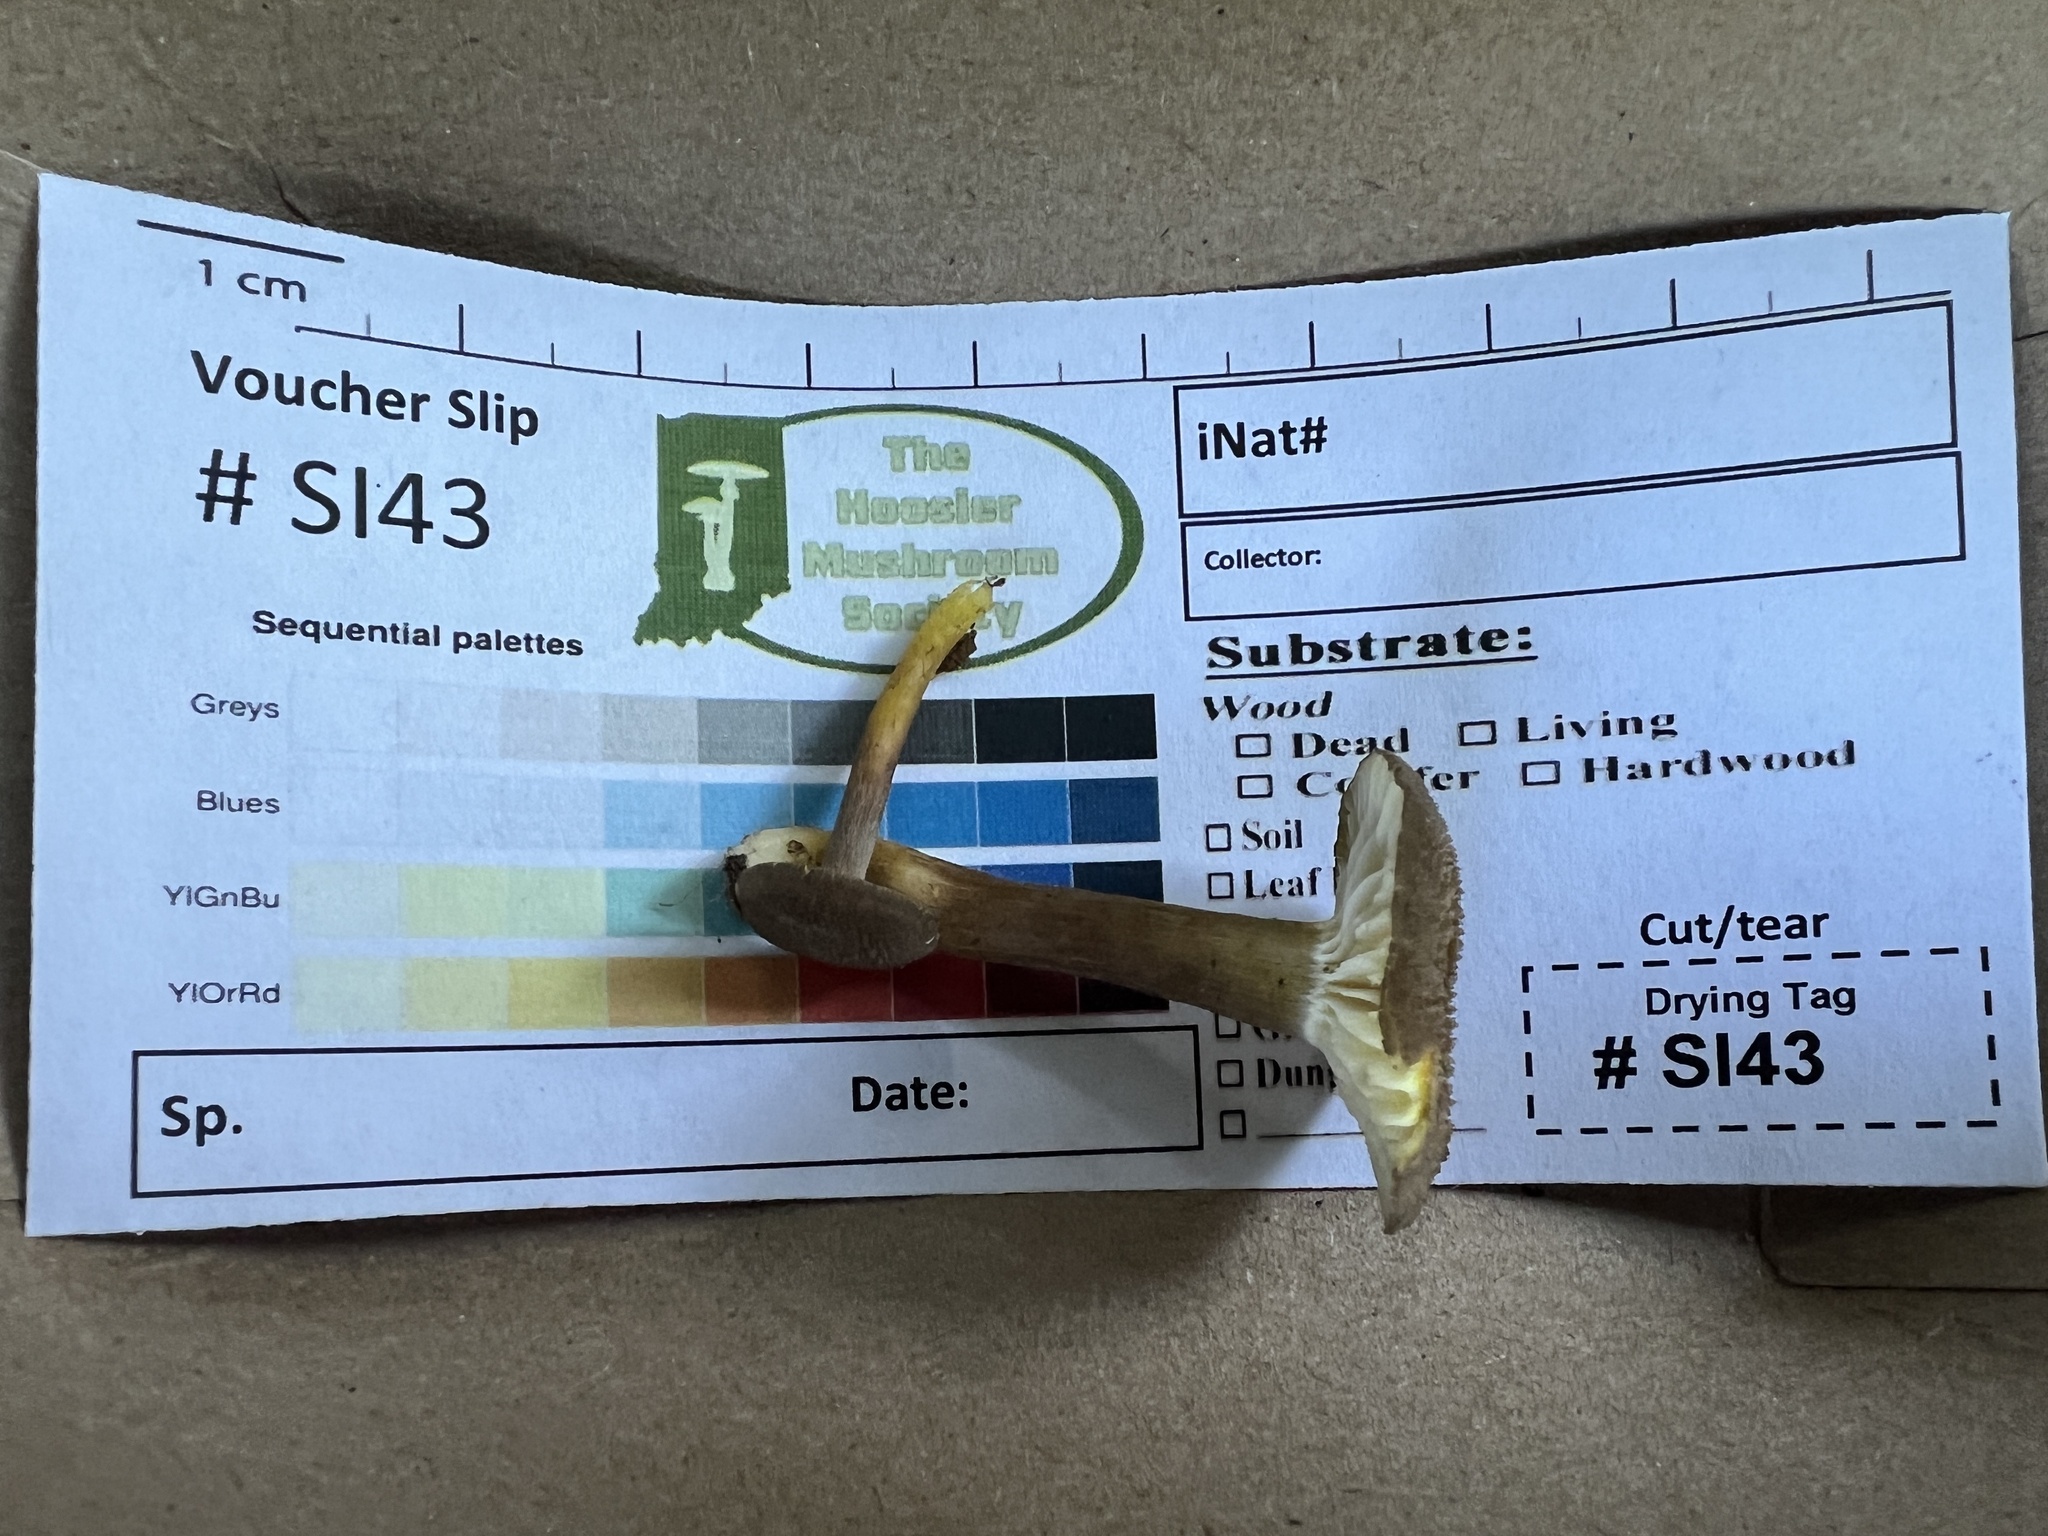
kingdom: Fungi
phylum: Basidiomycota
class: Agaricomycetes
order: Agaricales
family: Hygrophoraceae
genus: Hygrocybe
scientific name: Hygrocybe caespitosa
